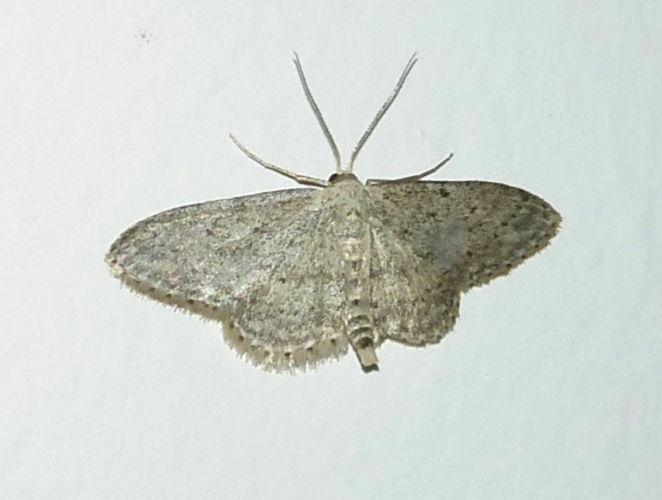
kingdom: Animalia
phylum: Arthropoda
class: Insecta
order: Lepidoptera
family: Geometridae
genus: Idaea
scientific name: Idaea seriata
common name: Small dusty wave
